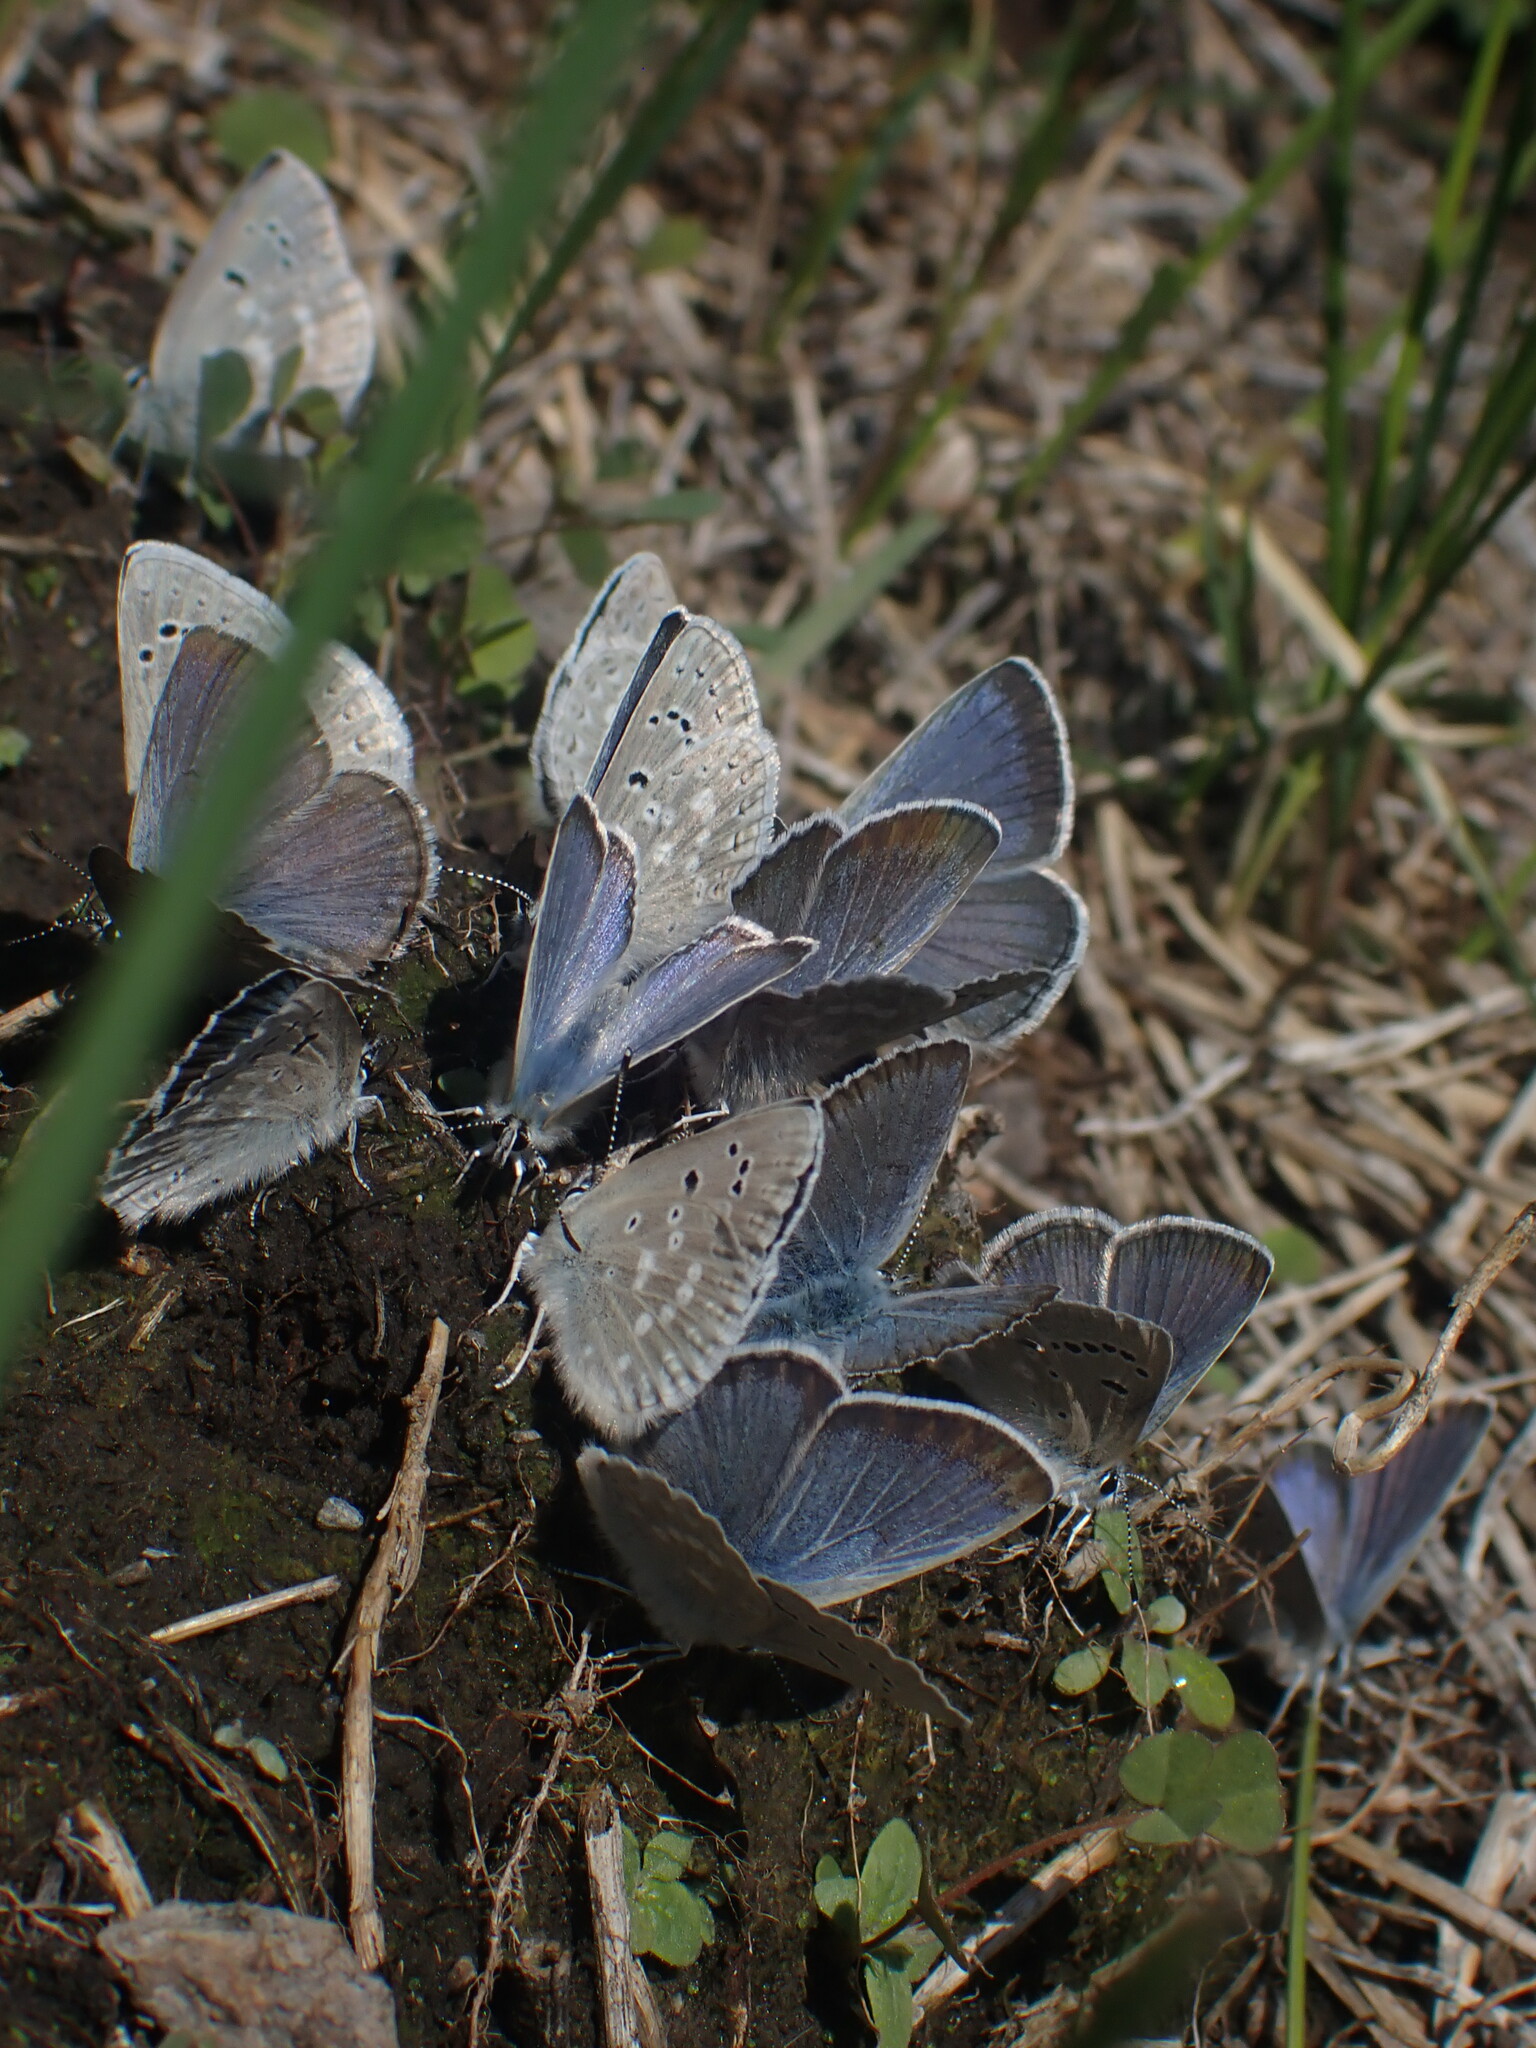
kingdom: Animalia
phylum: Arthropoda
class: Insecta
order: Lepidoptera
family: Lycaenidae
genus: Icaricia
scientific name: Icaricia icarioides
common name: Boisduval's blue
